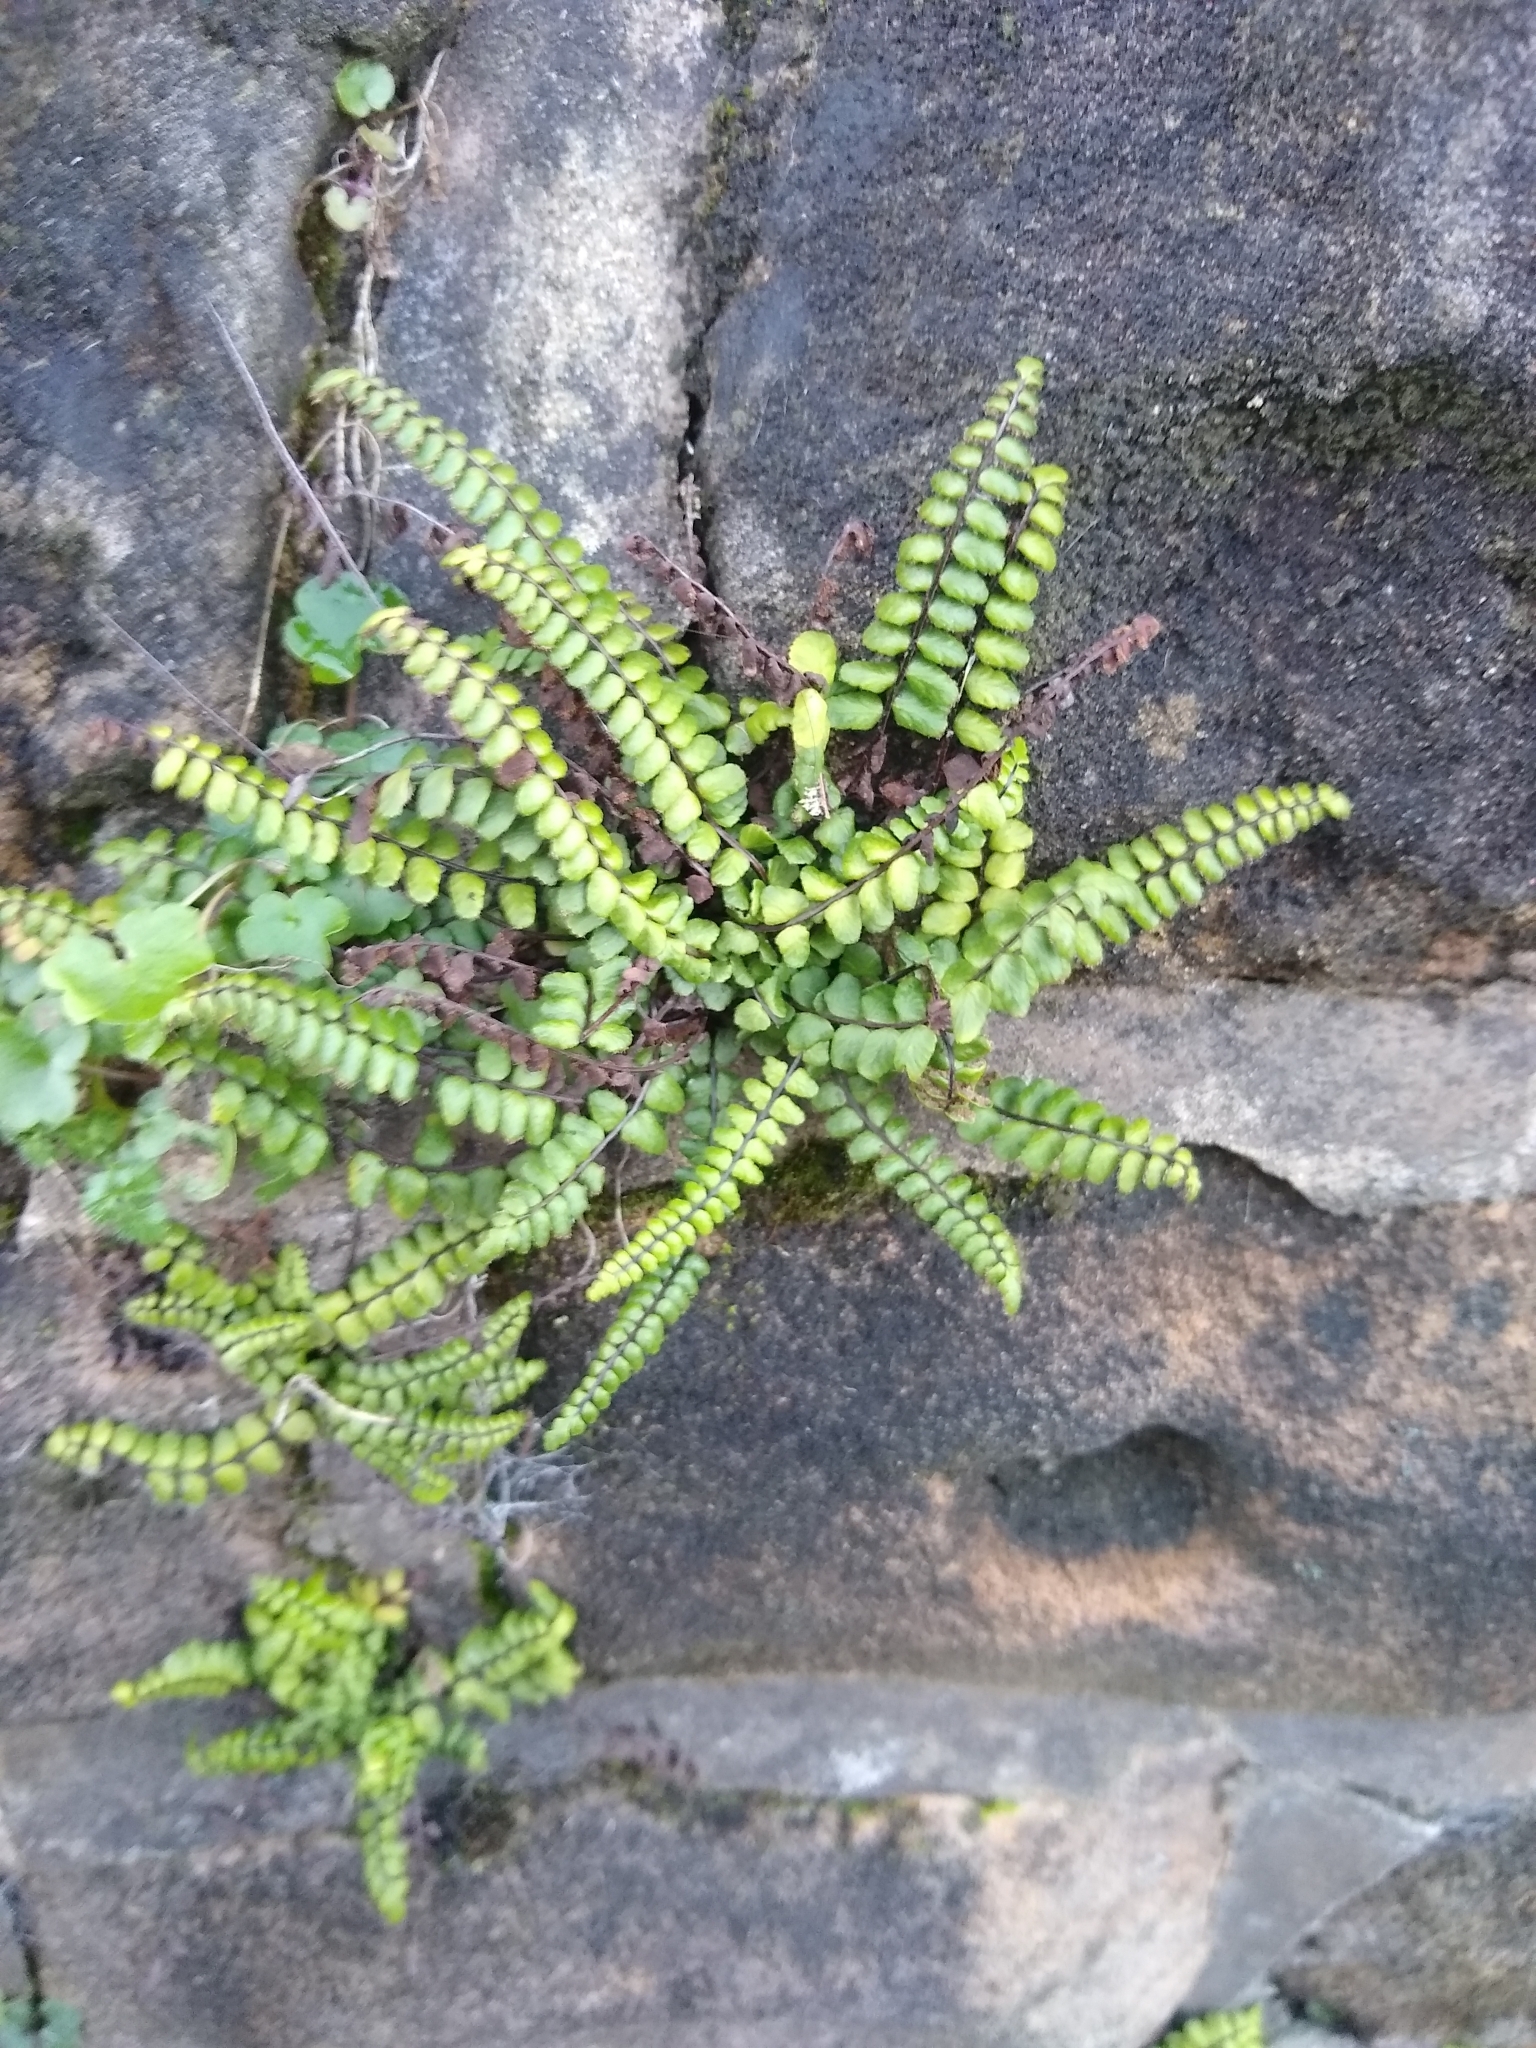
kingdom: Plantae
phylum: Tracheophyta
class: Polypodiopsida
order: Polypodiales
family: Aspleniaceae
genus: Asplenium
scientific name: Asplenium trichomanes
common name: Maidenhair spleenwort
